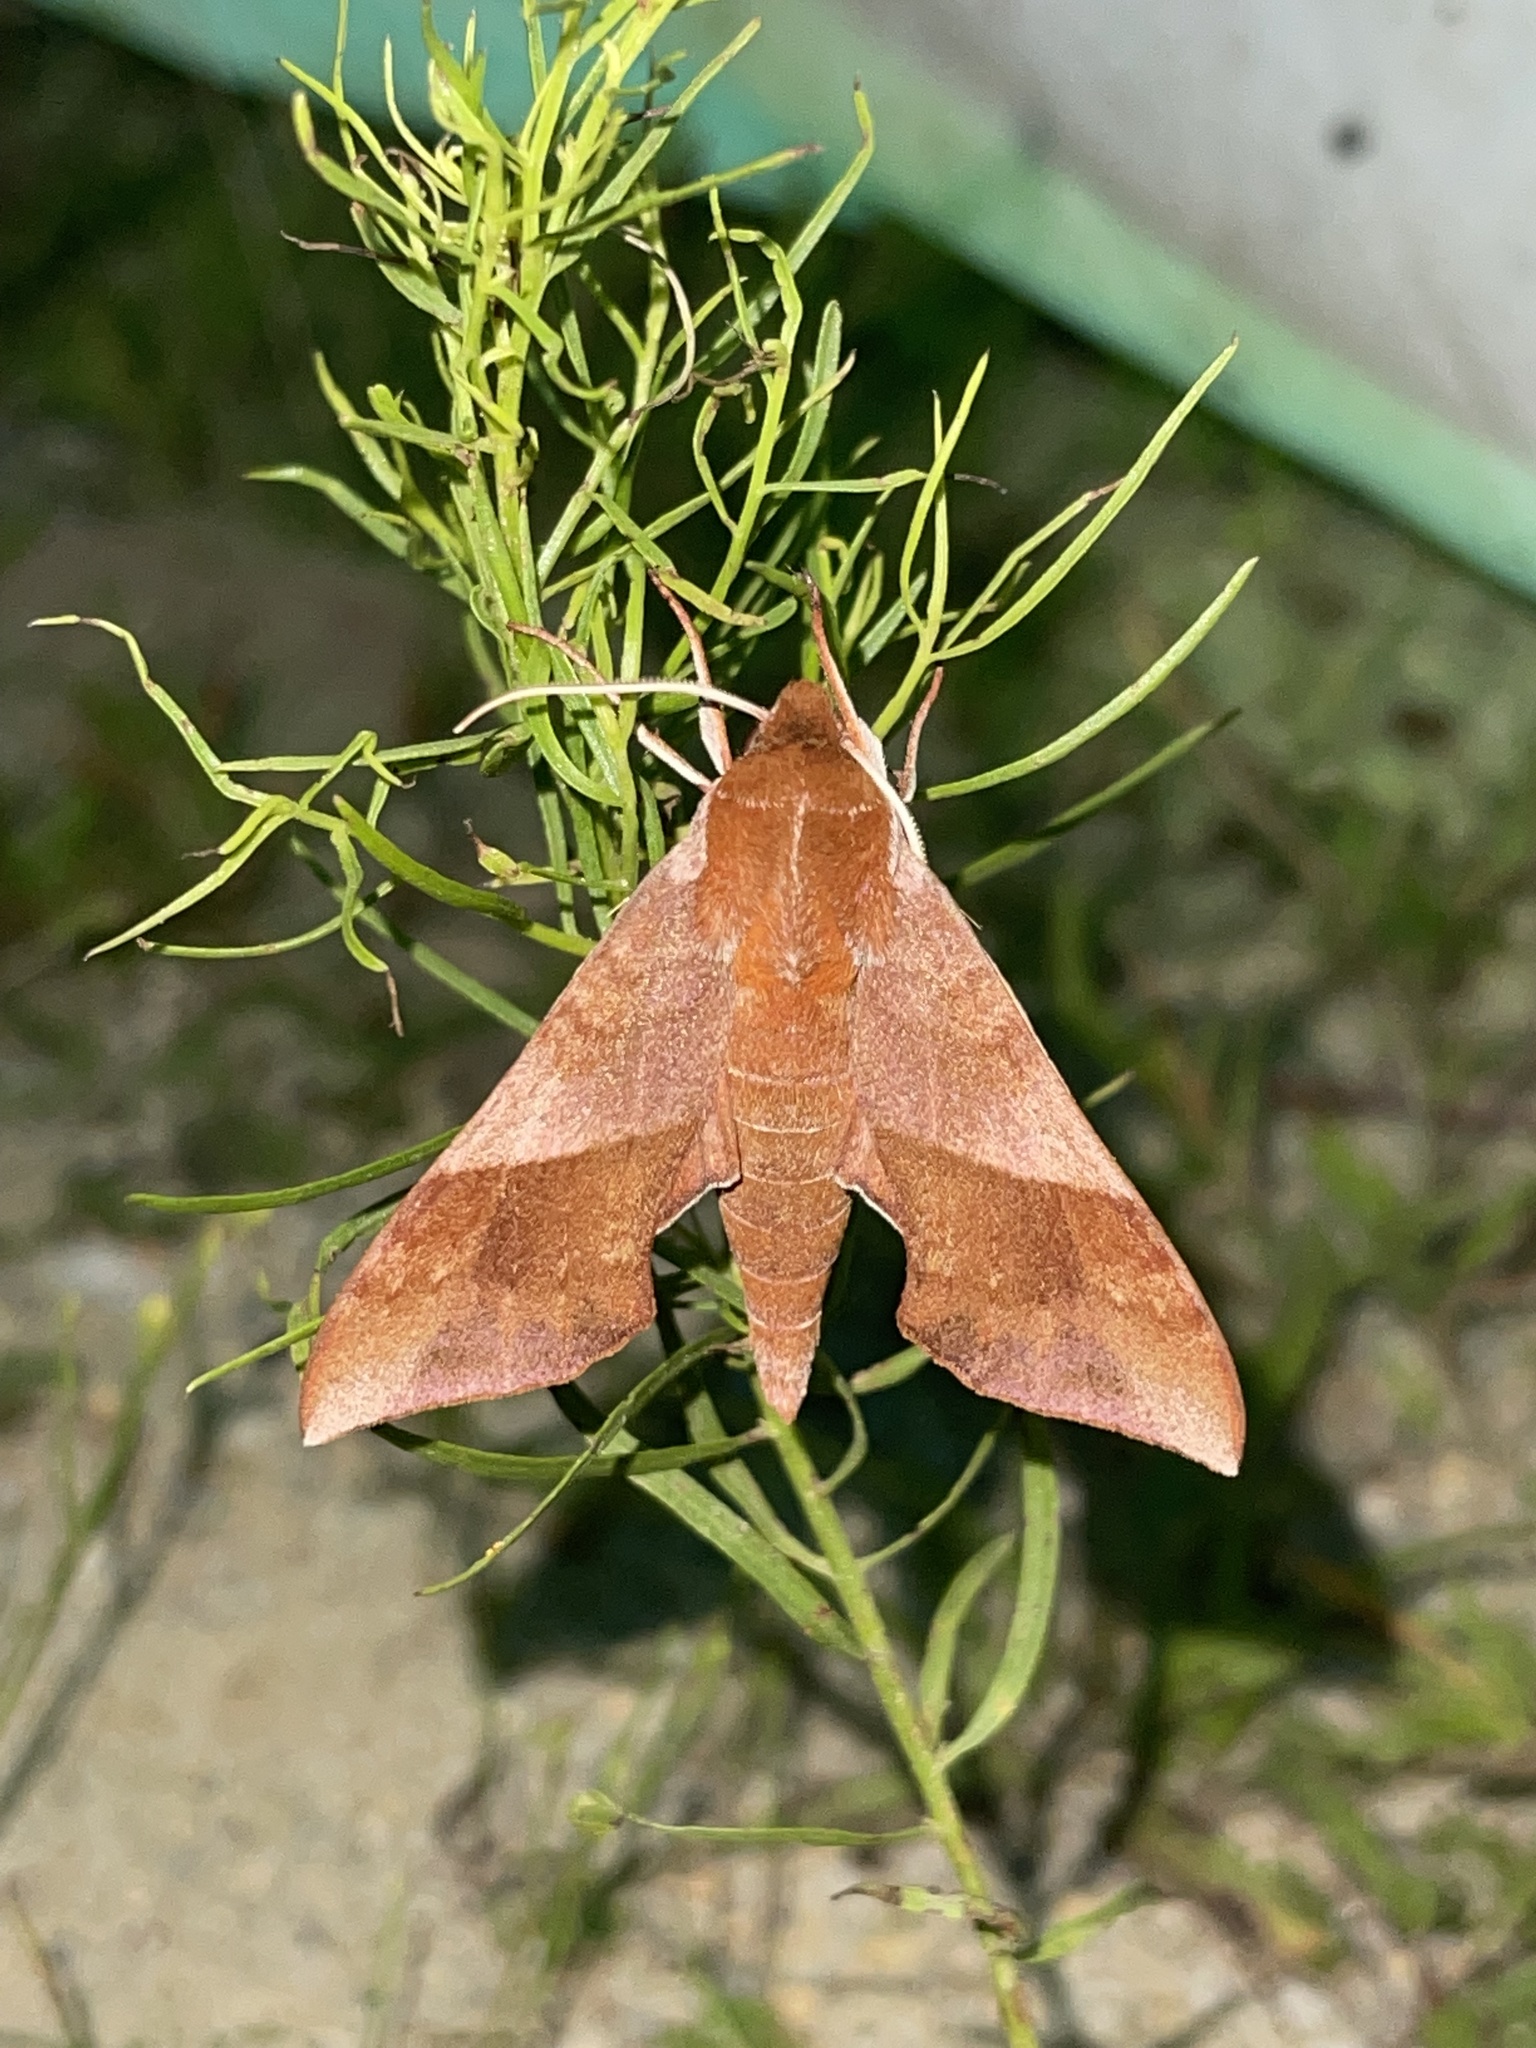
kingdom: Animalia
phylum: Arthropoda
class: Insecta
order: Lepidoptera
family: Sphingidae
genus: Darapsa
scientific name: Darapsa choerilus
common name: Azalea sphinx
